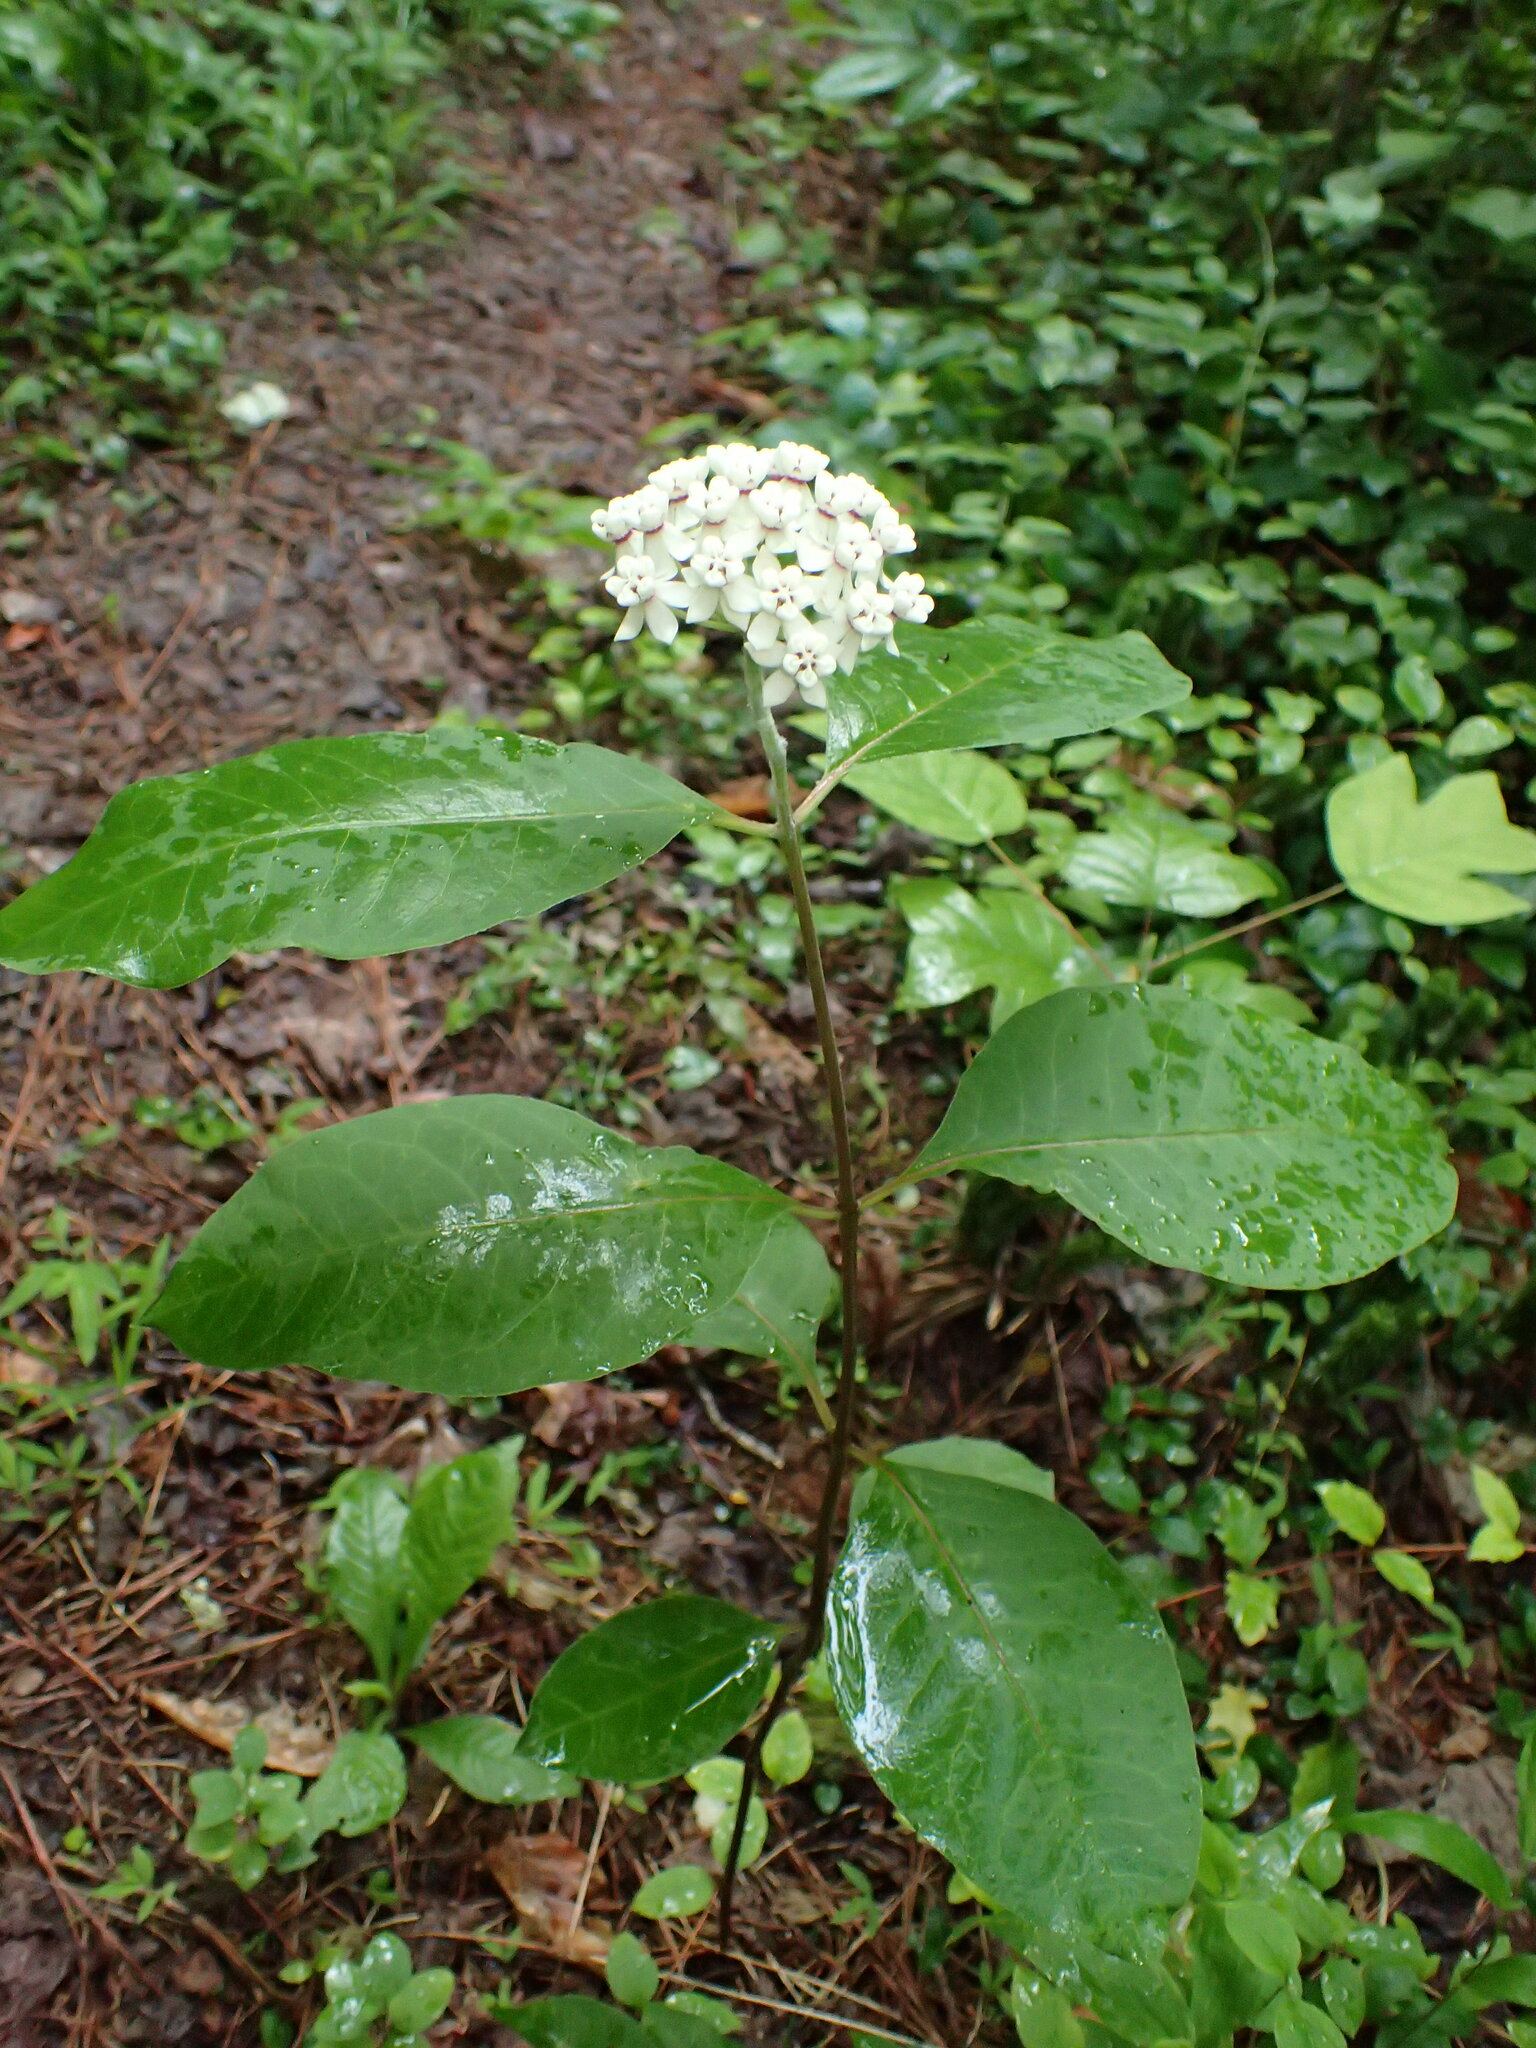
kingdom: Plantae
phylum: Tracheophyta
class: Magnoliopsida
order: Gentianales
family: Apocynaceae
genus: Asclepias
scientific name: Asclepias variegata
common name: Variegated milkweed
